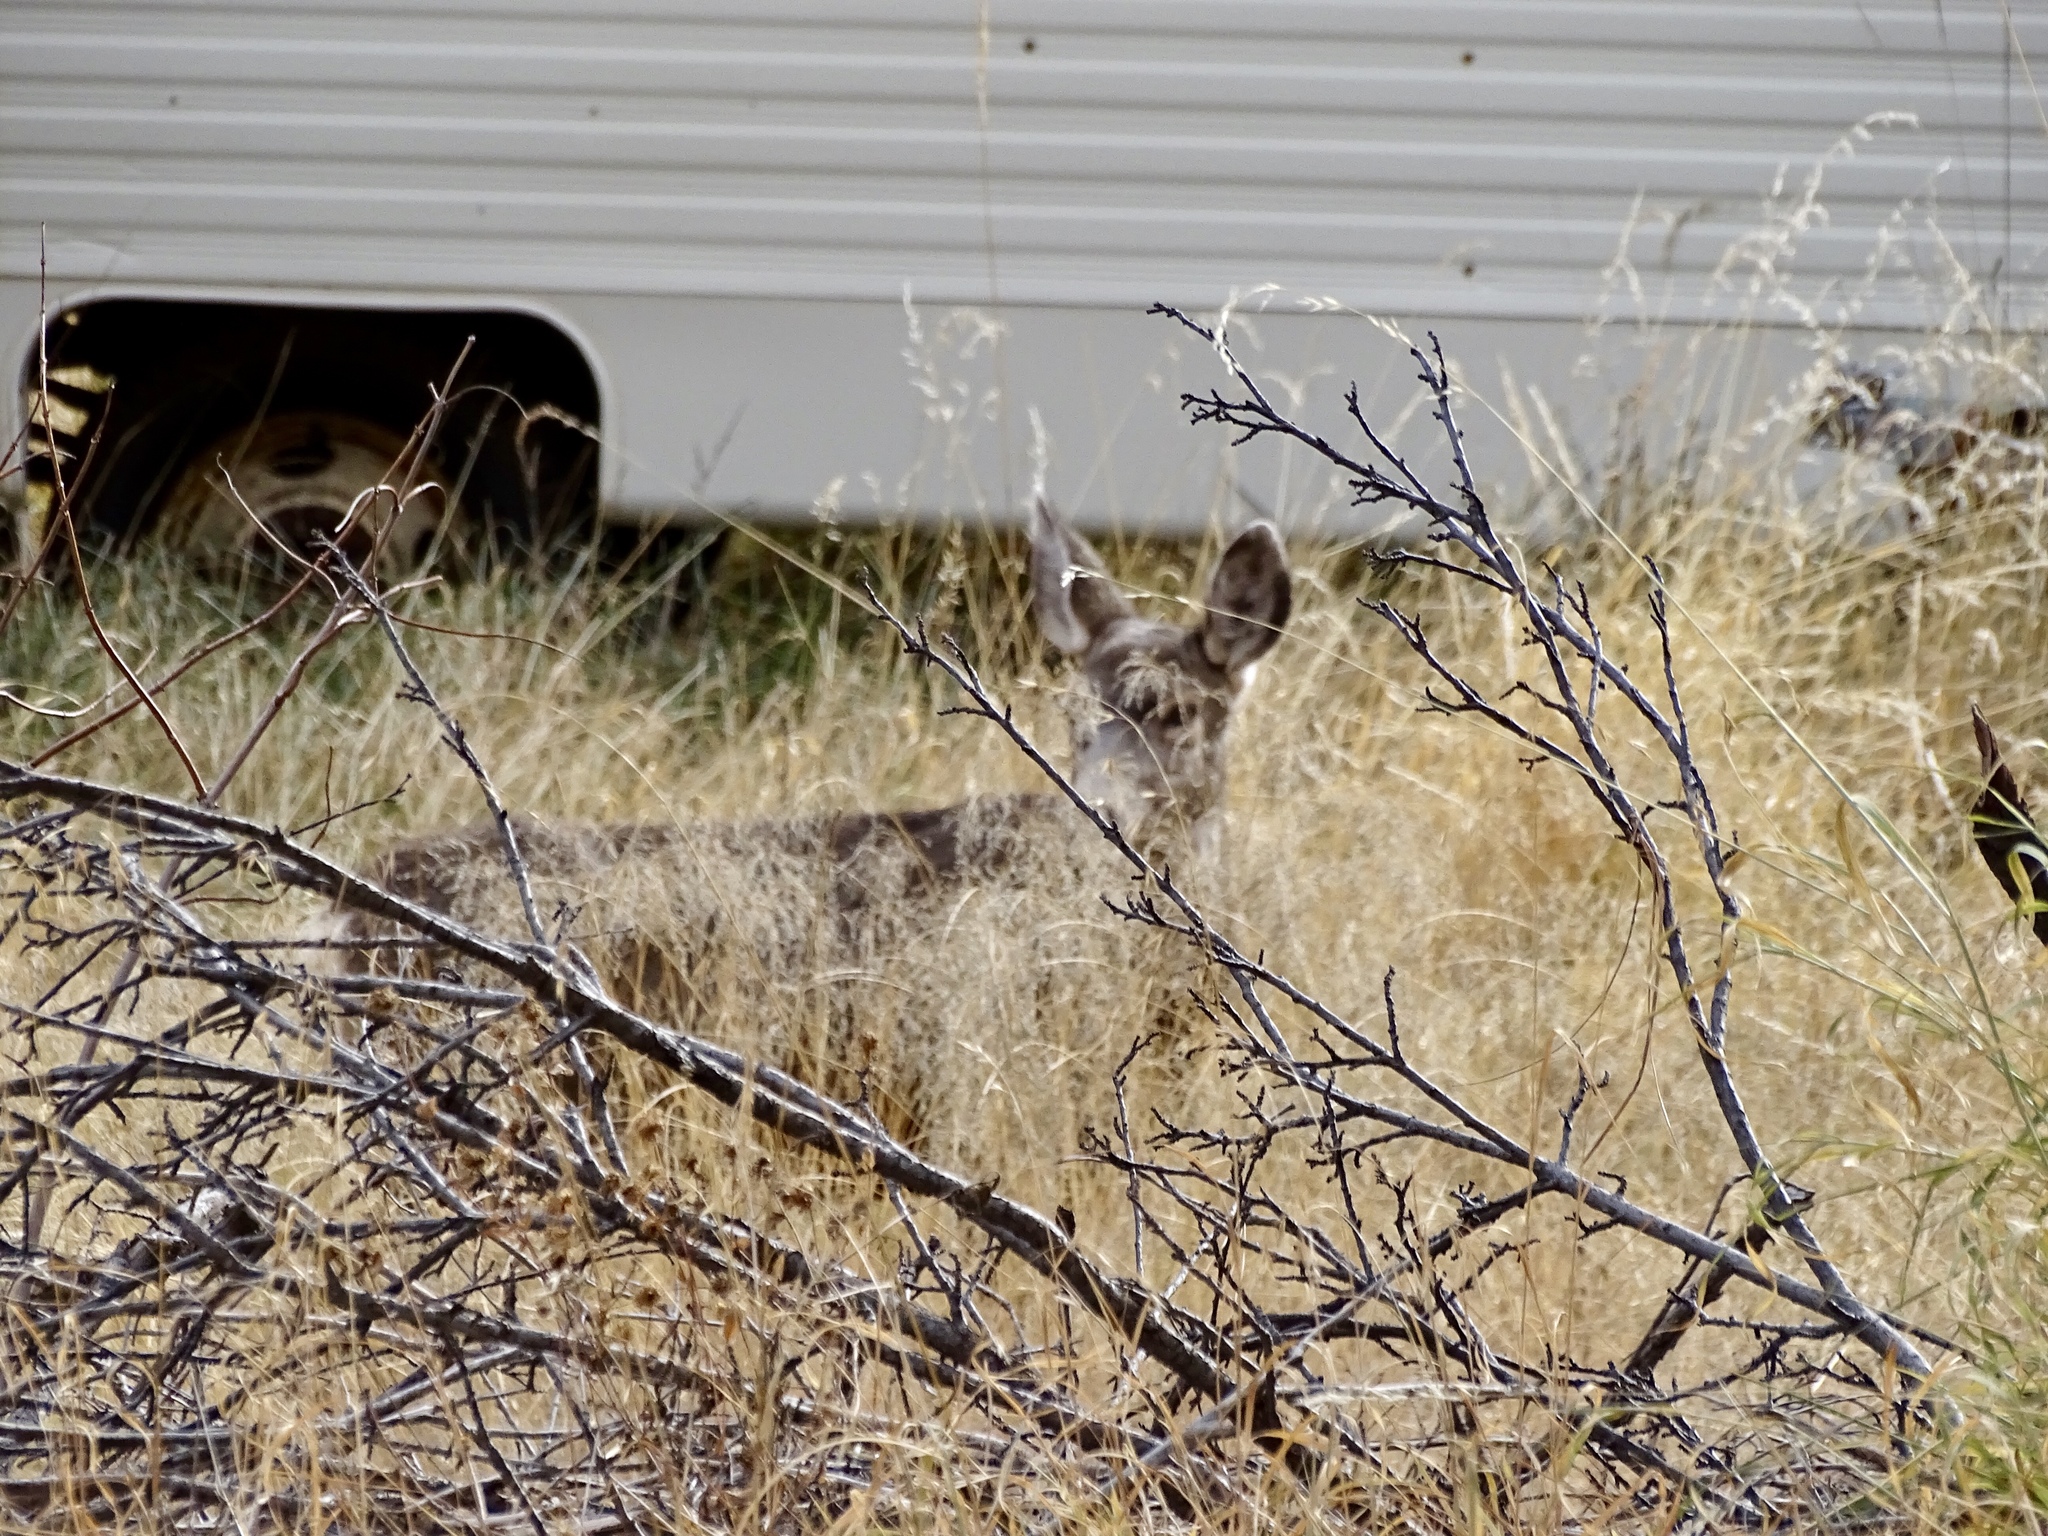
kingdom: Animalia
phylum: Chordata
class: Mammalia
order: Artiodactyla
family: Cervidae
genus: Odocoileus
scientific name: Odocoileus hemionus
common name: Mule deer
